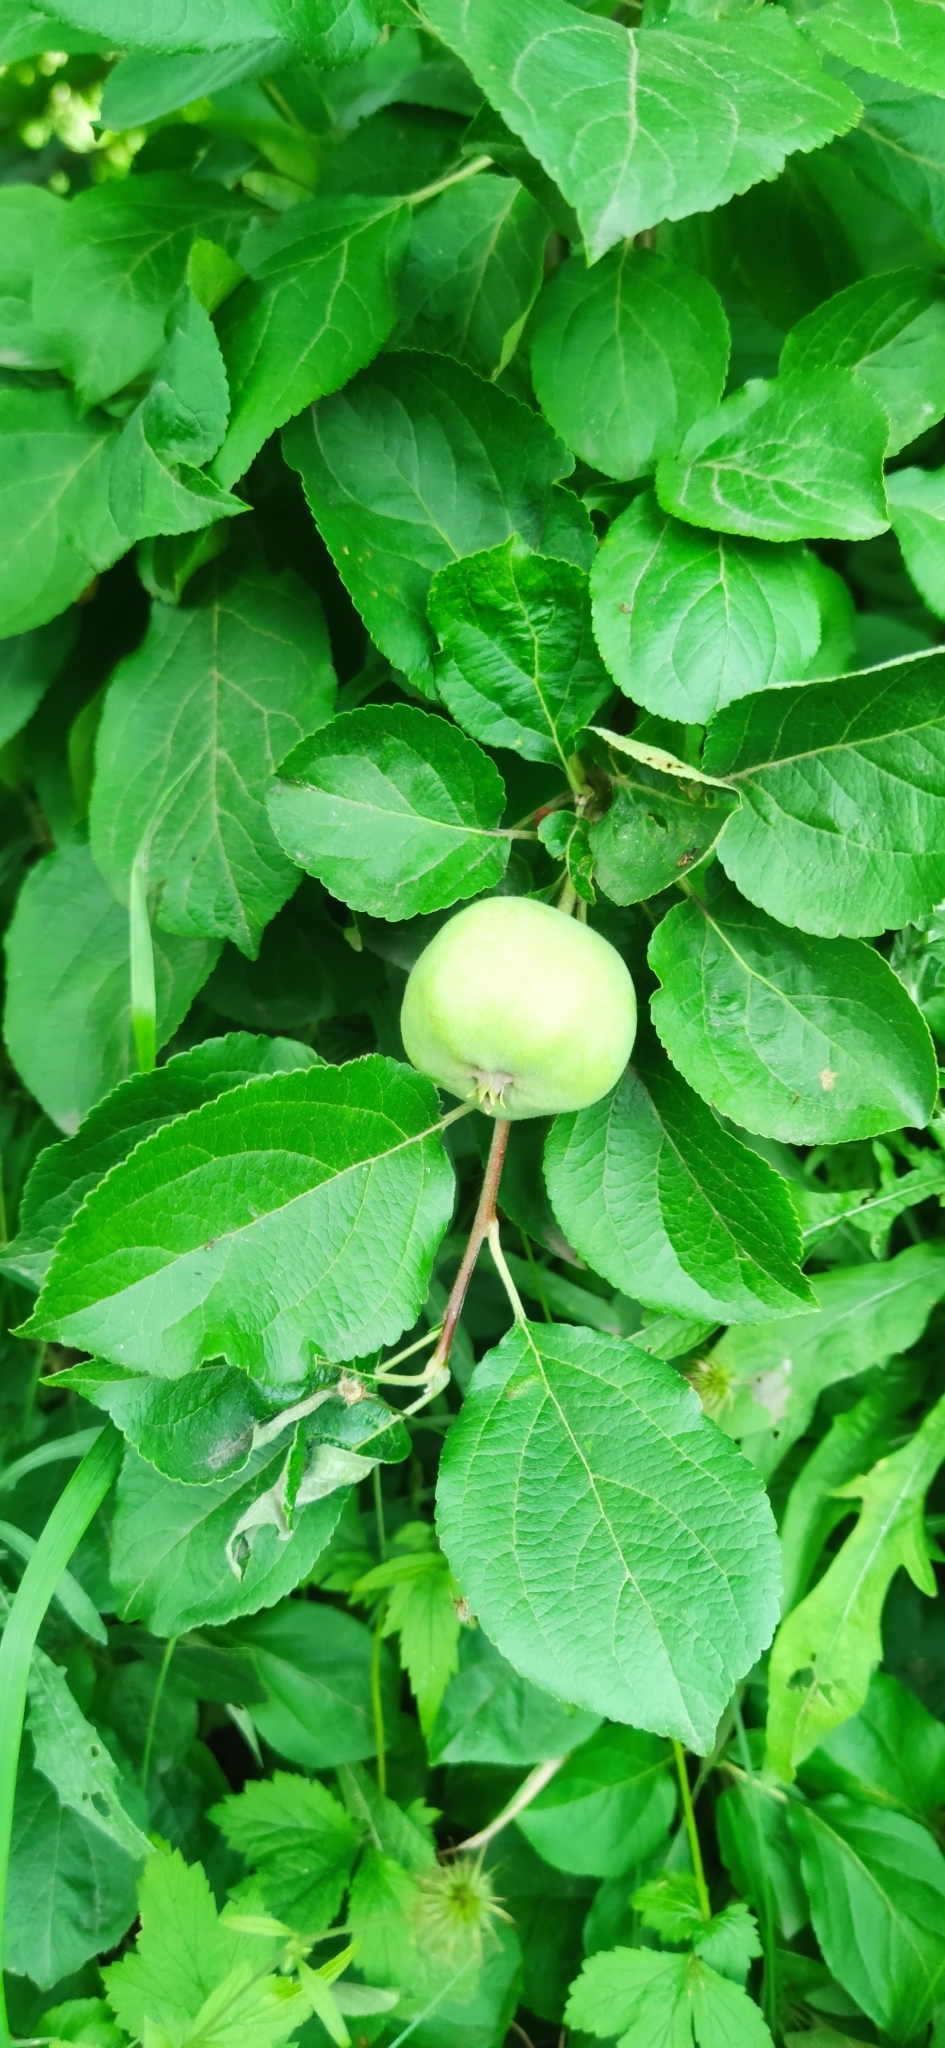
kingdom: Plantae
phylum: Tracheophyta
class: Magnoliopsida
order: Rosales
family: Rosaceae
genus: Malus
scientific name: Malus domestica
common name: Apple
